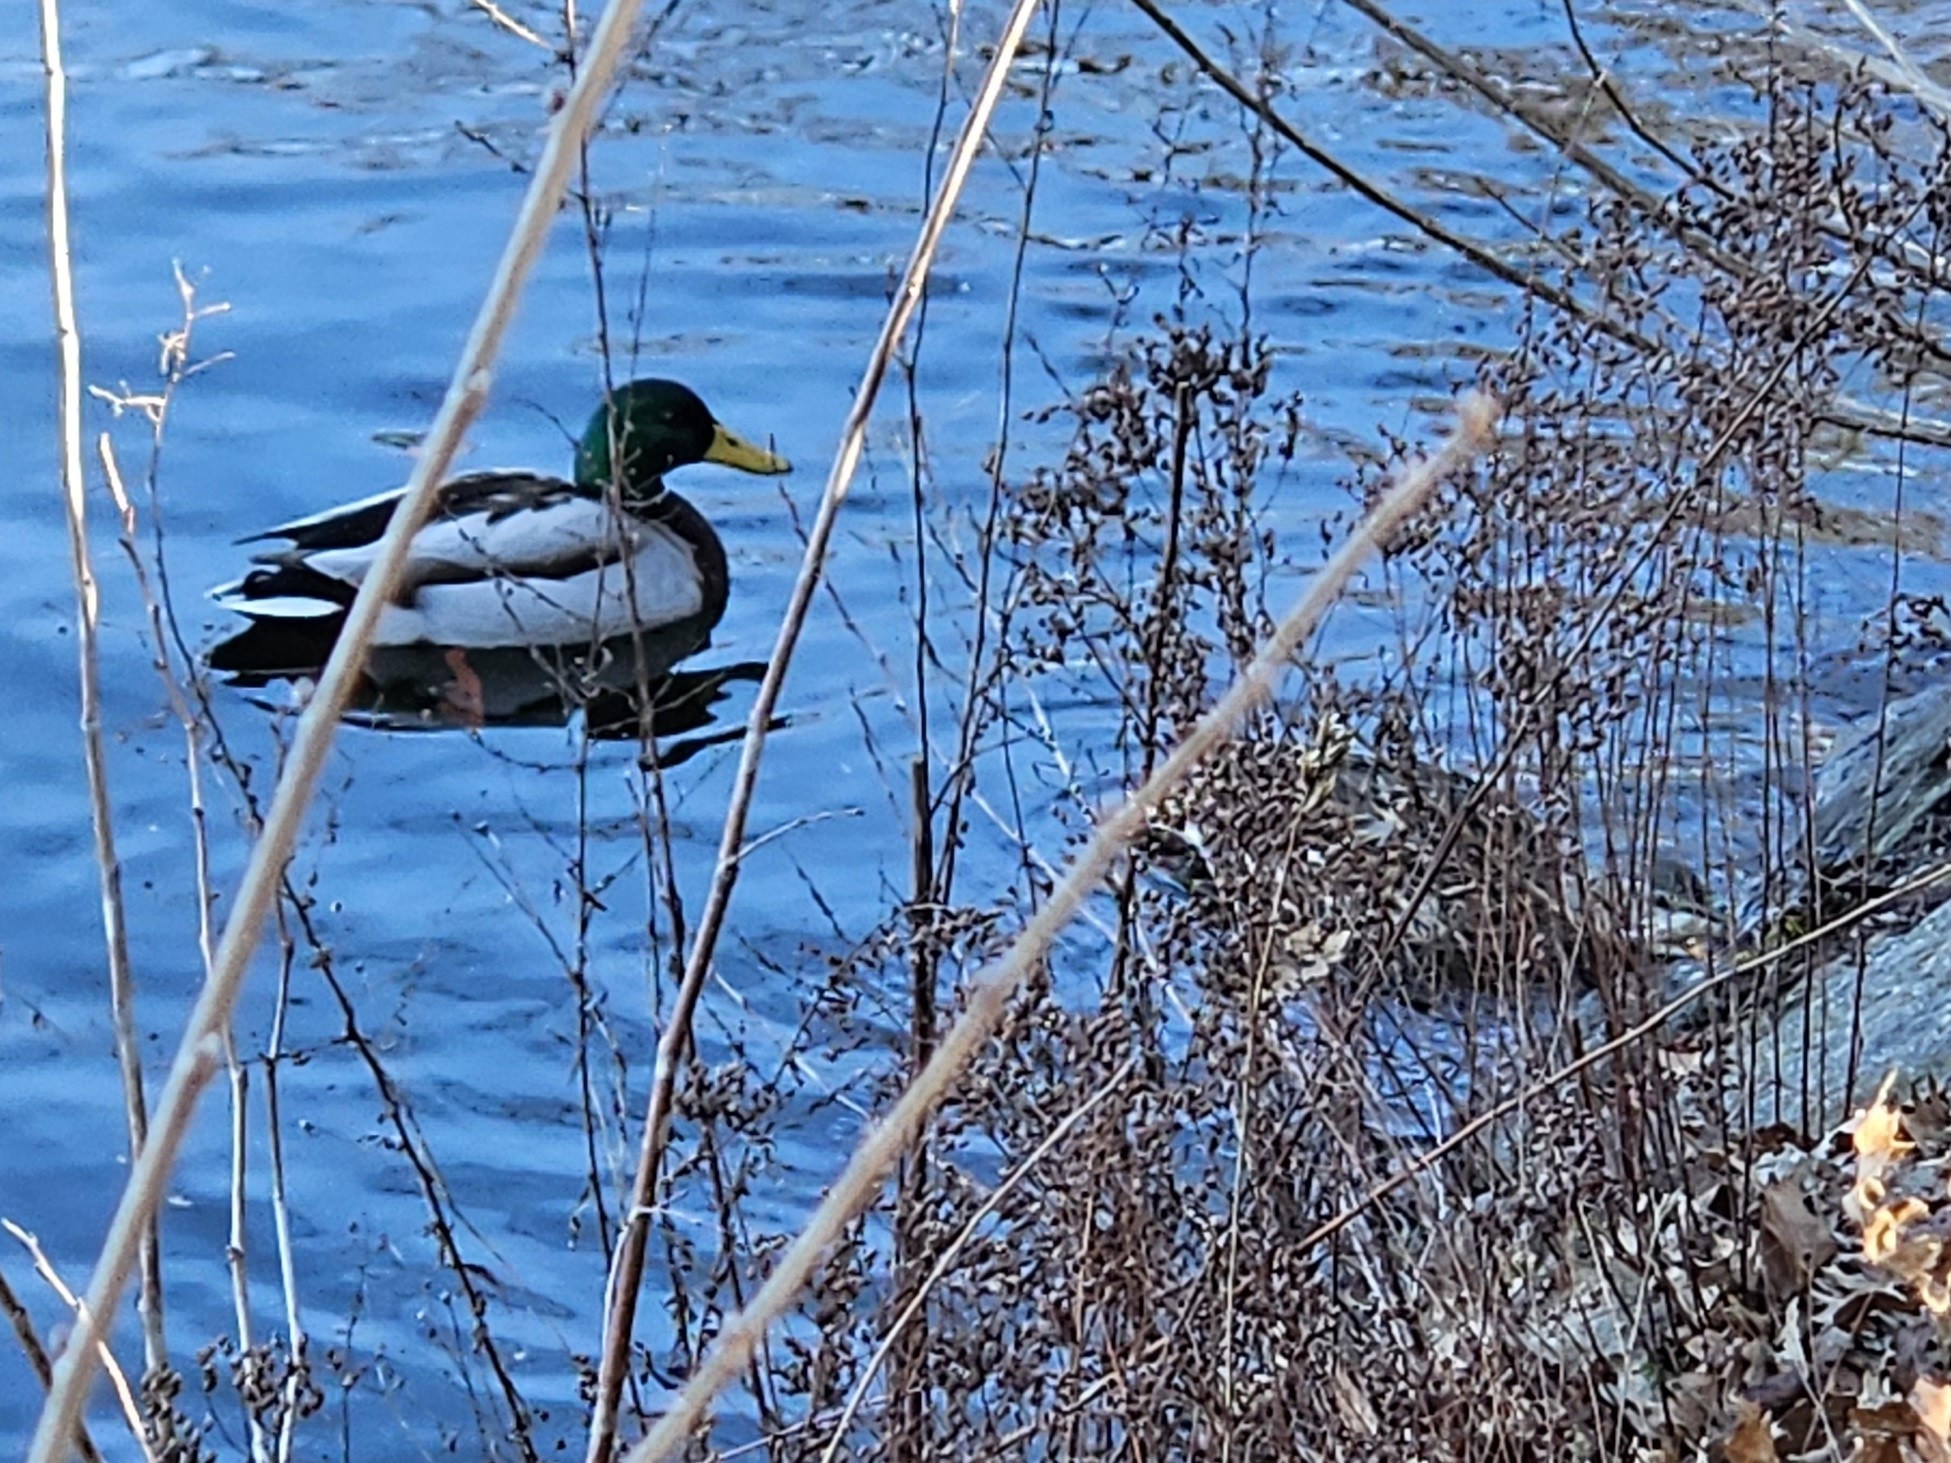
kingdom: Animalia
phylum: Chordata
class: Aves
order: Anseriformes
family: Anatidae
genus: Anas
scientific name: Anas platyrhynchos
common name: Mallard
